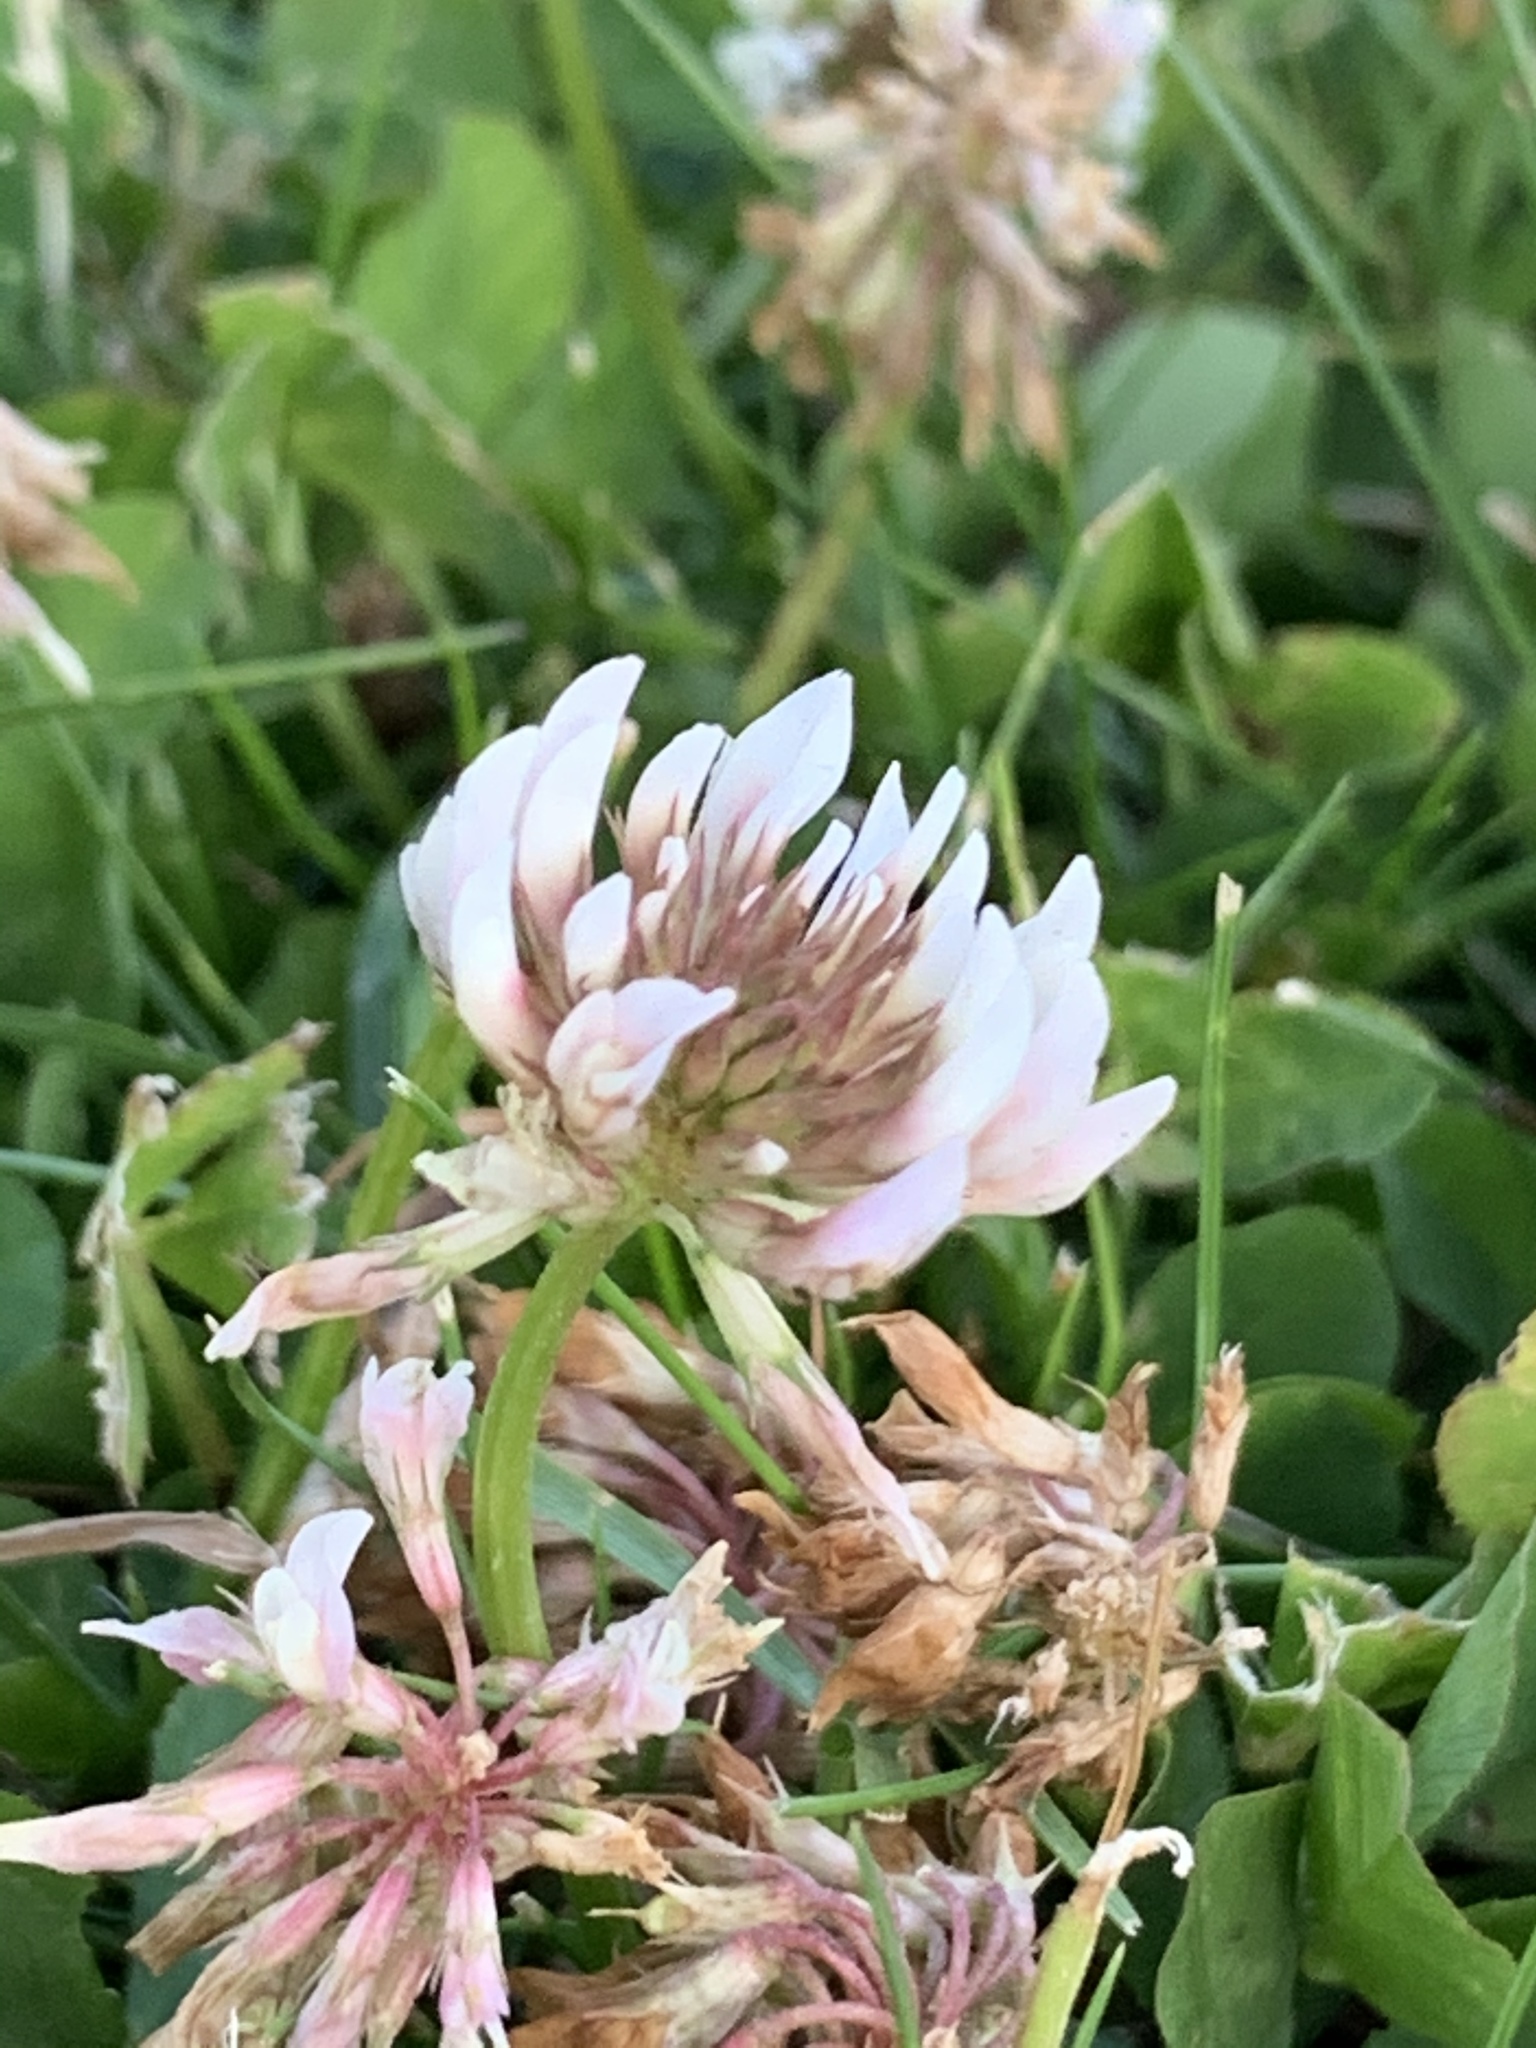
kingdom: Plantae
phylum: Tracheophyta
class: Magnoliopsida
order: Fabales
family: Fabaceae
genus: Trifolium
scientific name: Trifolium repens
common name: White clover
